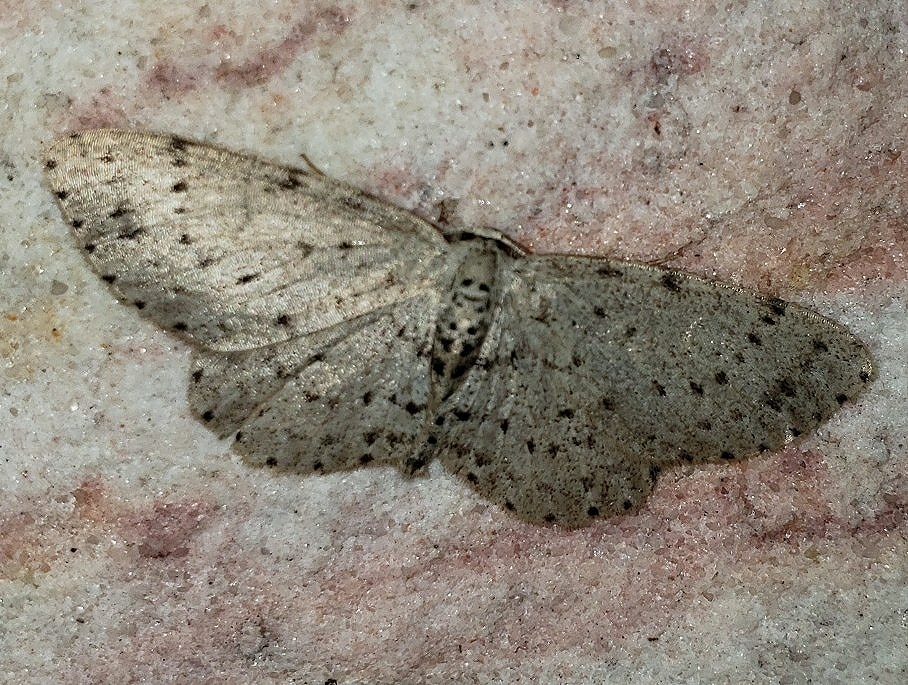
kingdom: Animalia
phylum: Arthropoda
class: Insecta
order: Lepidoptera
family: Geometridae
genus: Glena
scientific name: Glena cribrataria
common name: Dotted gray
